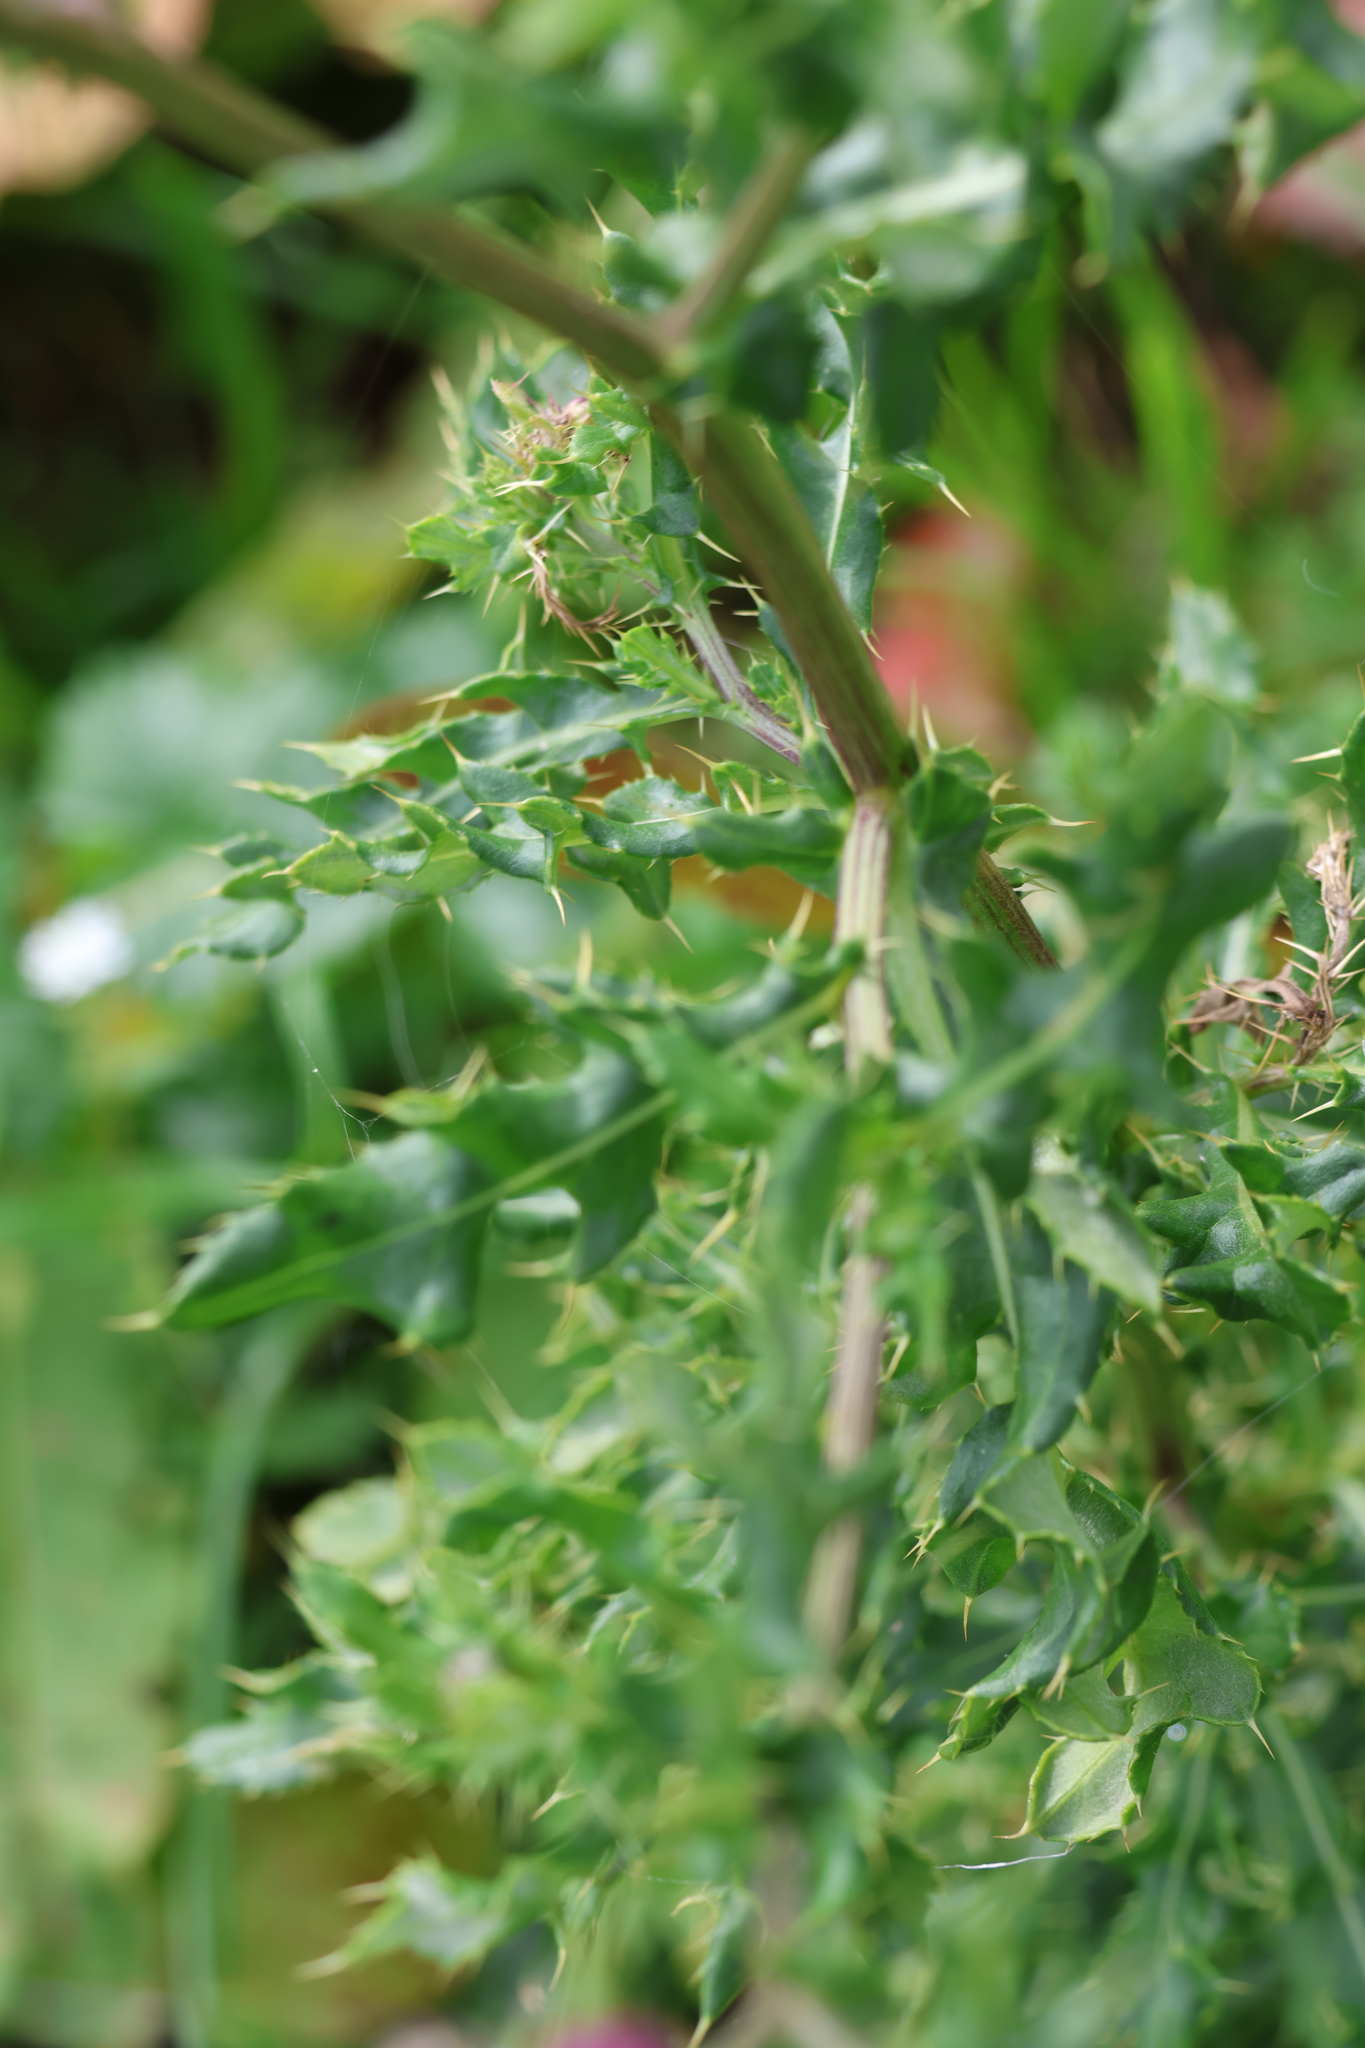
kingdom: Plantae
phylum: Tracheophyta
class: Magnoliopsida
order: Asterales
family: Asteraceae
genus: Cirsium
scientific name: Cirsium arvense
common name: Creeping thistle
